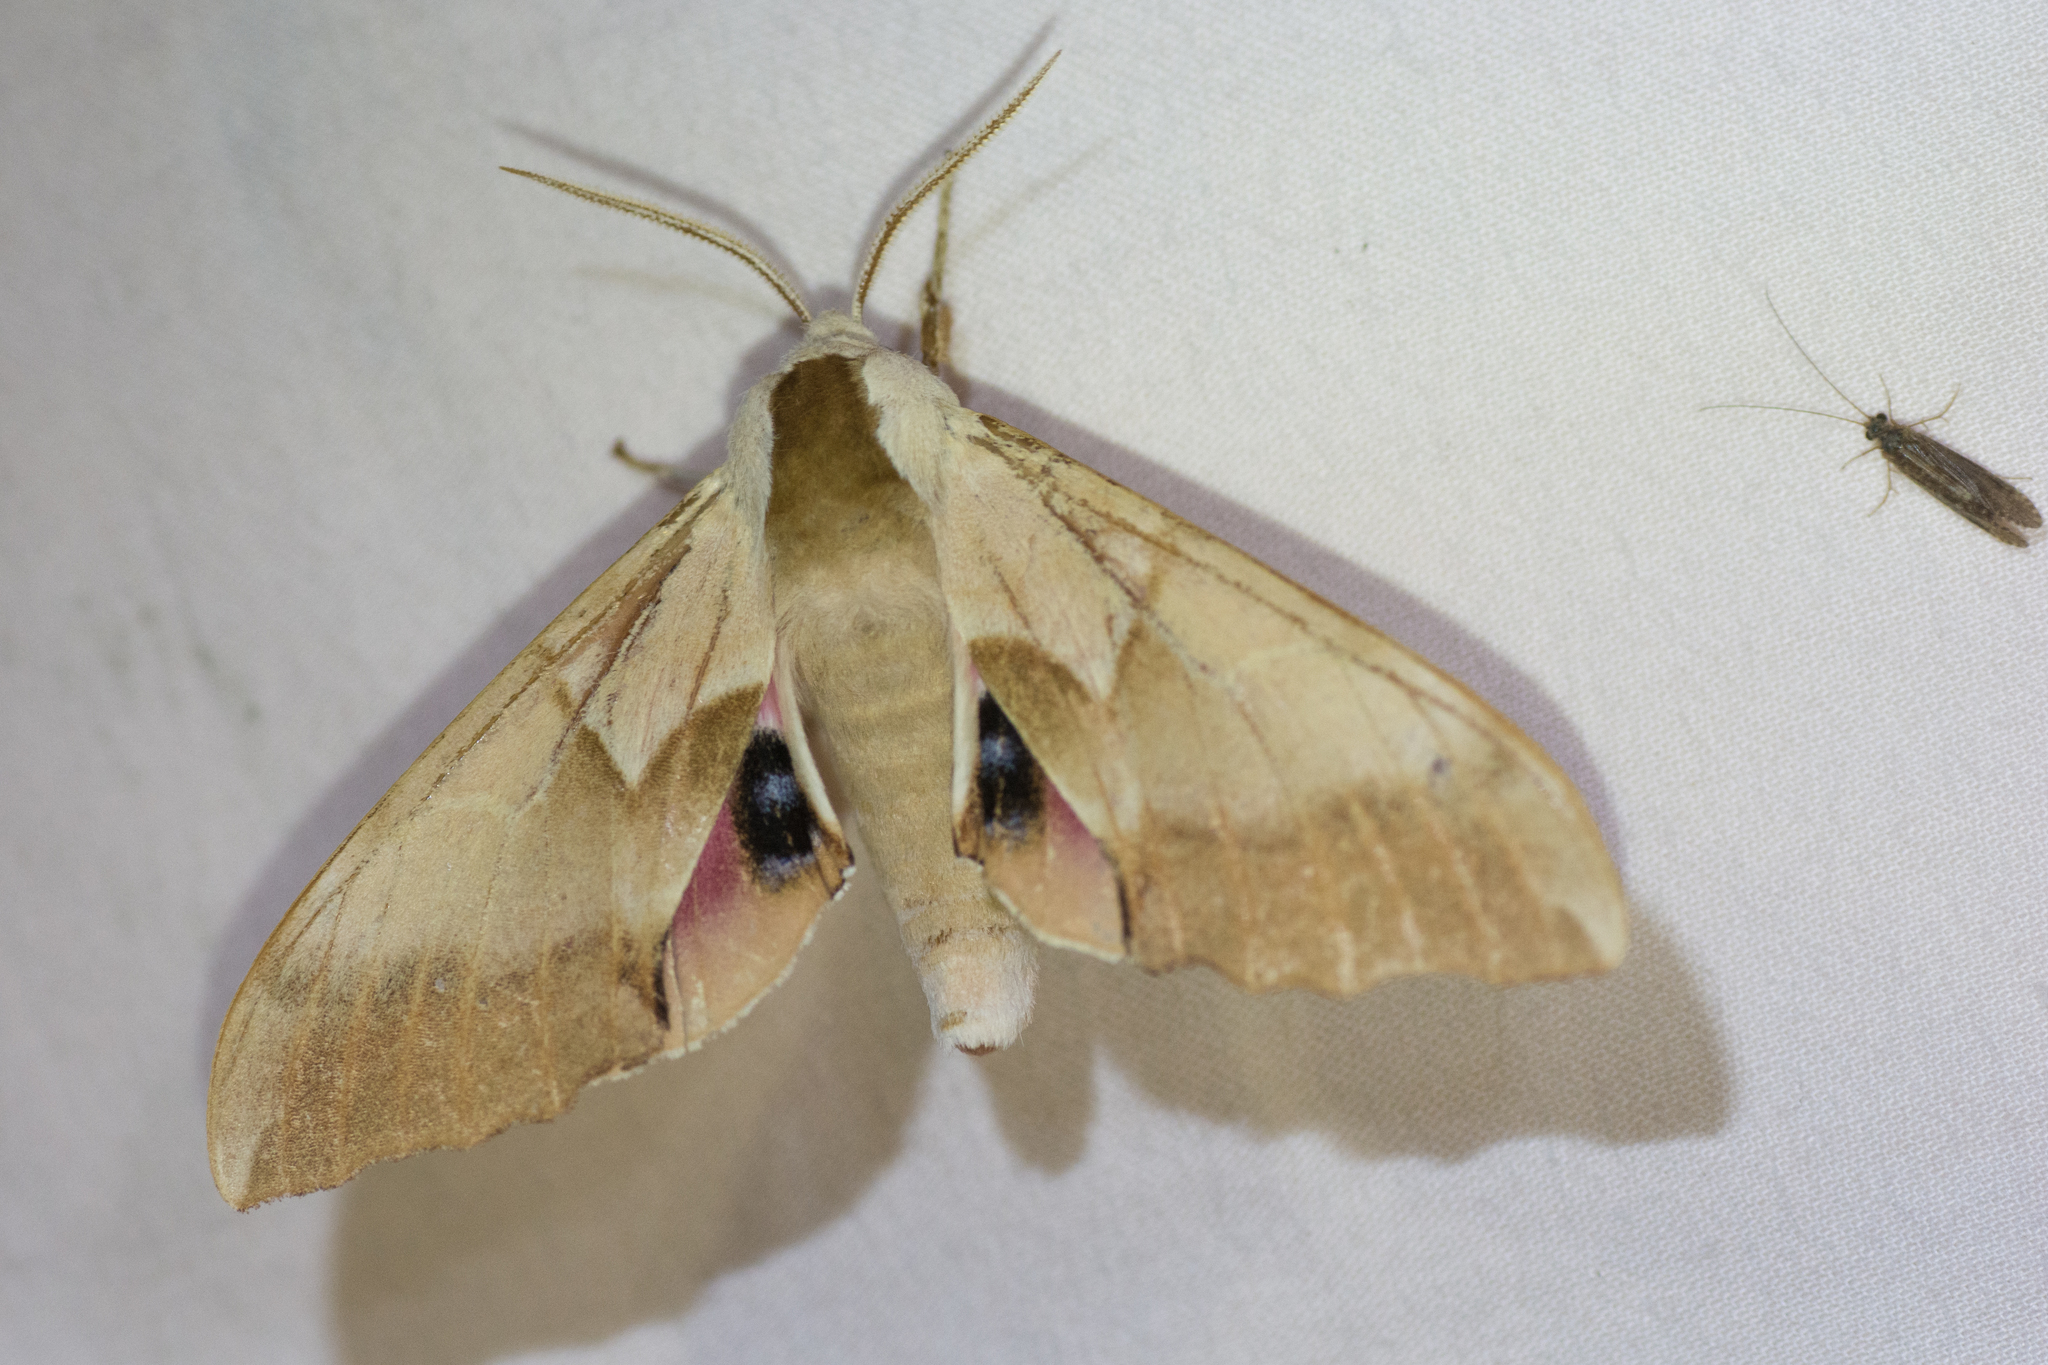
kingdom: Animalia
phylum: Arthropoda
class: Insecta
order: Lepidoptera
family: Sphingidae
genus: Smerinthus
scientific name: Smerinthus saliceti
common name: Salicet sphinx
